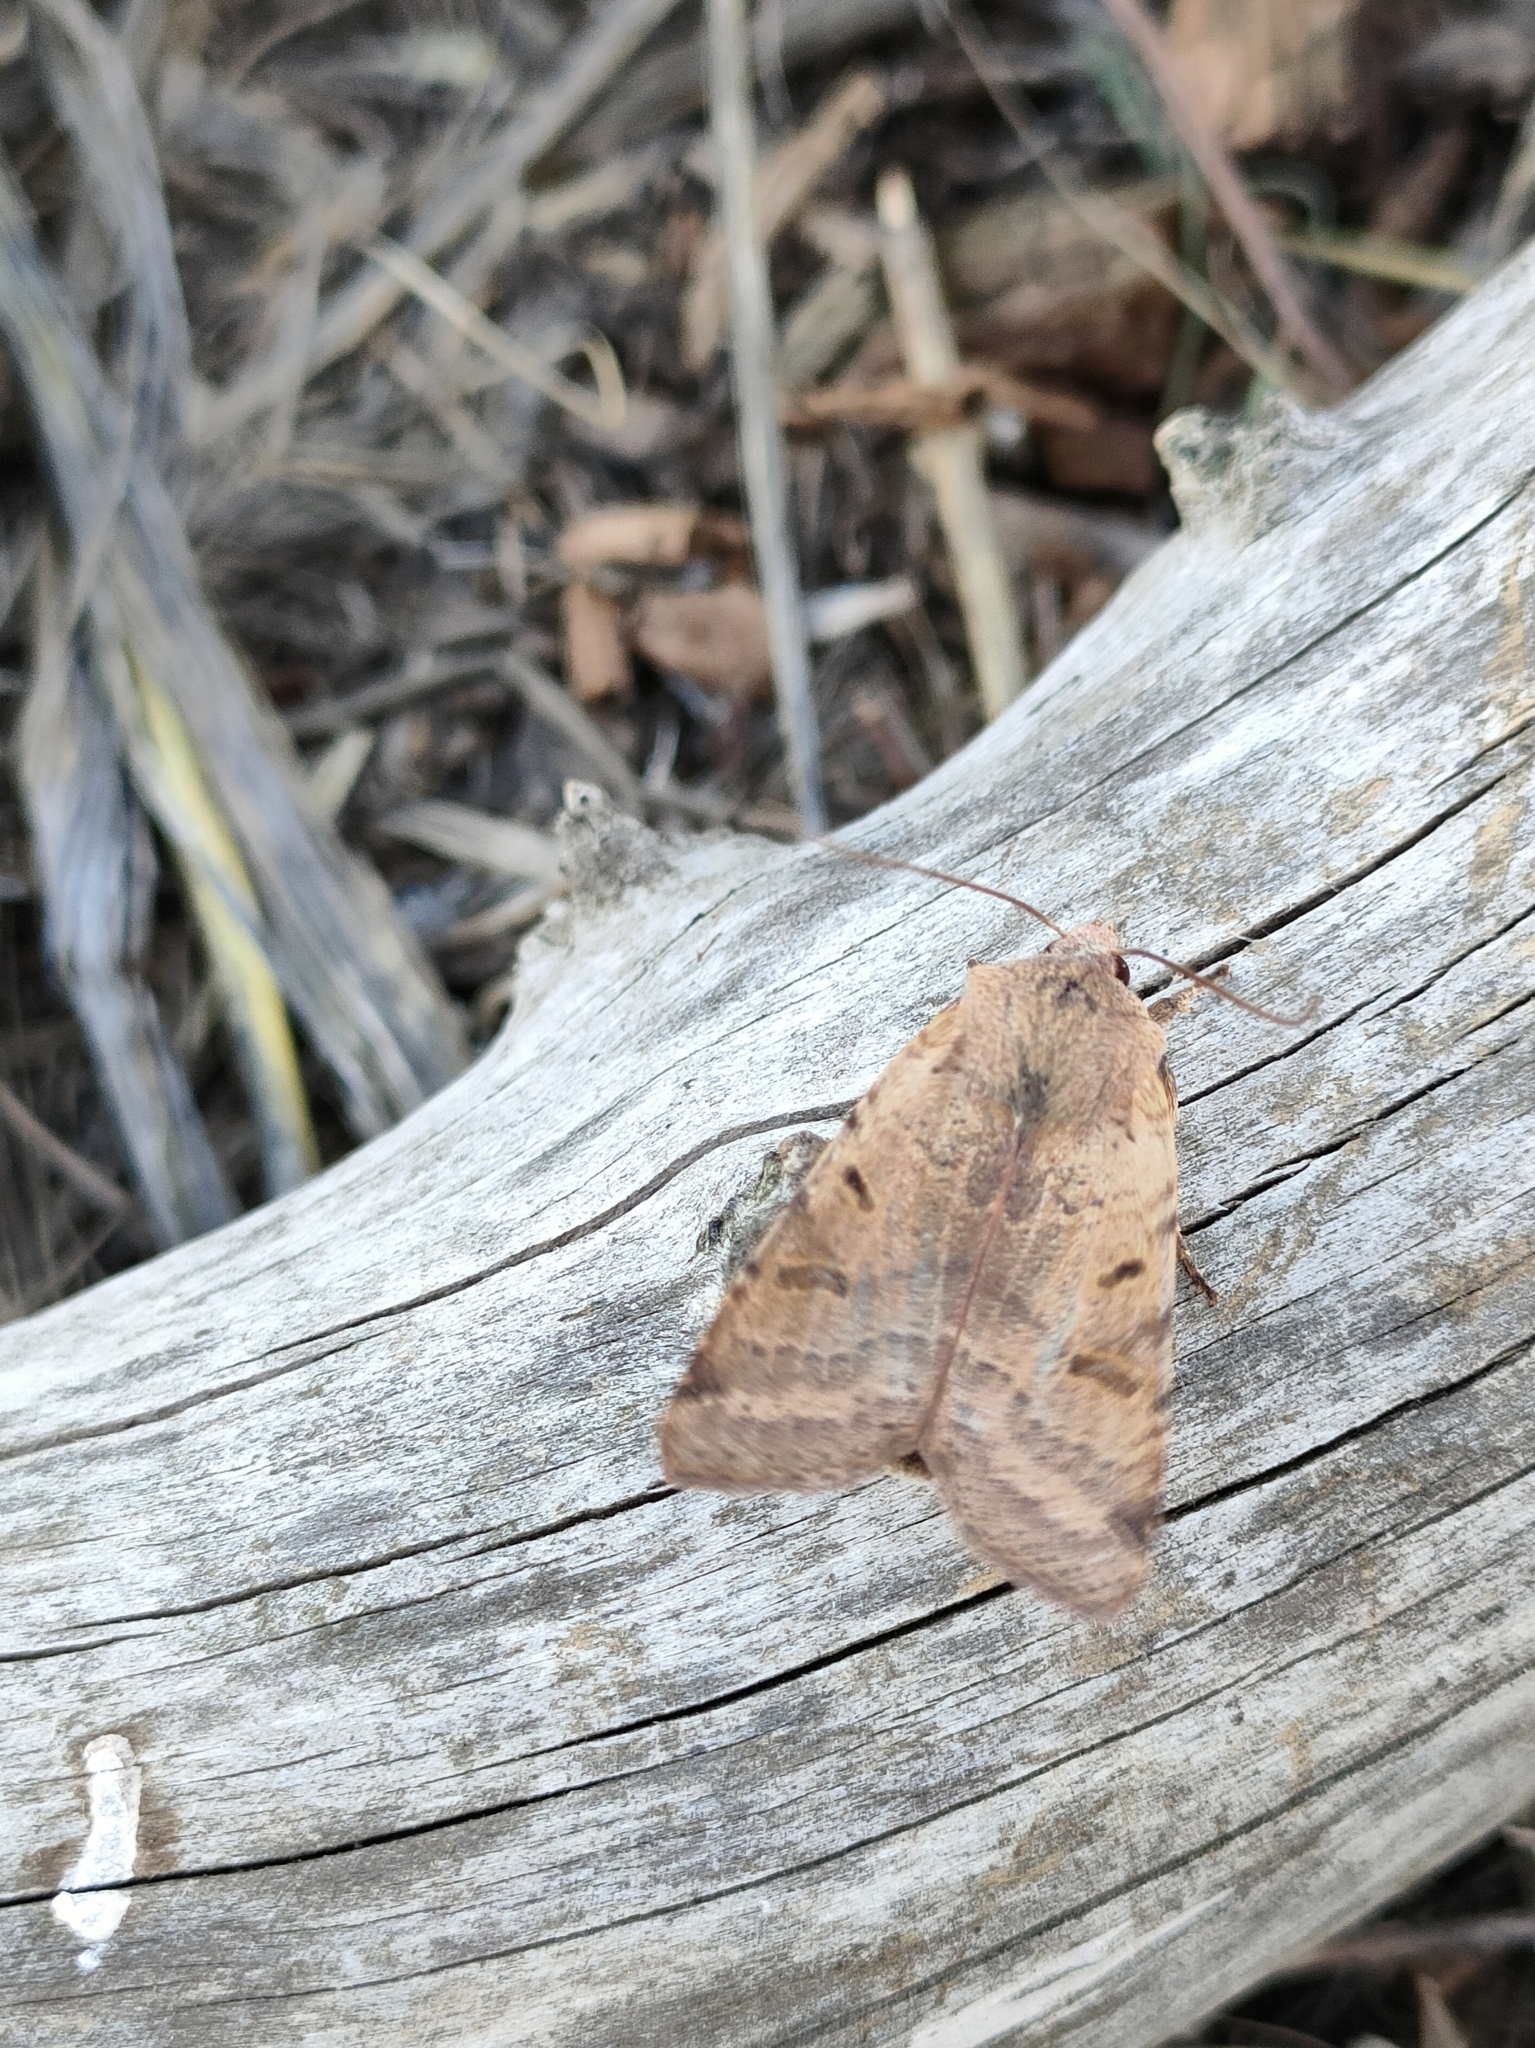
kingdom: Animalia
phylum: Arthropoda
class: Insecta
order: Lepidoptera
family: Noctuidae
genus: Agrochola
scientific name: Agrochola lychnidis
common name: Beaded chestnut
